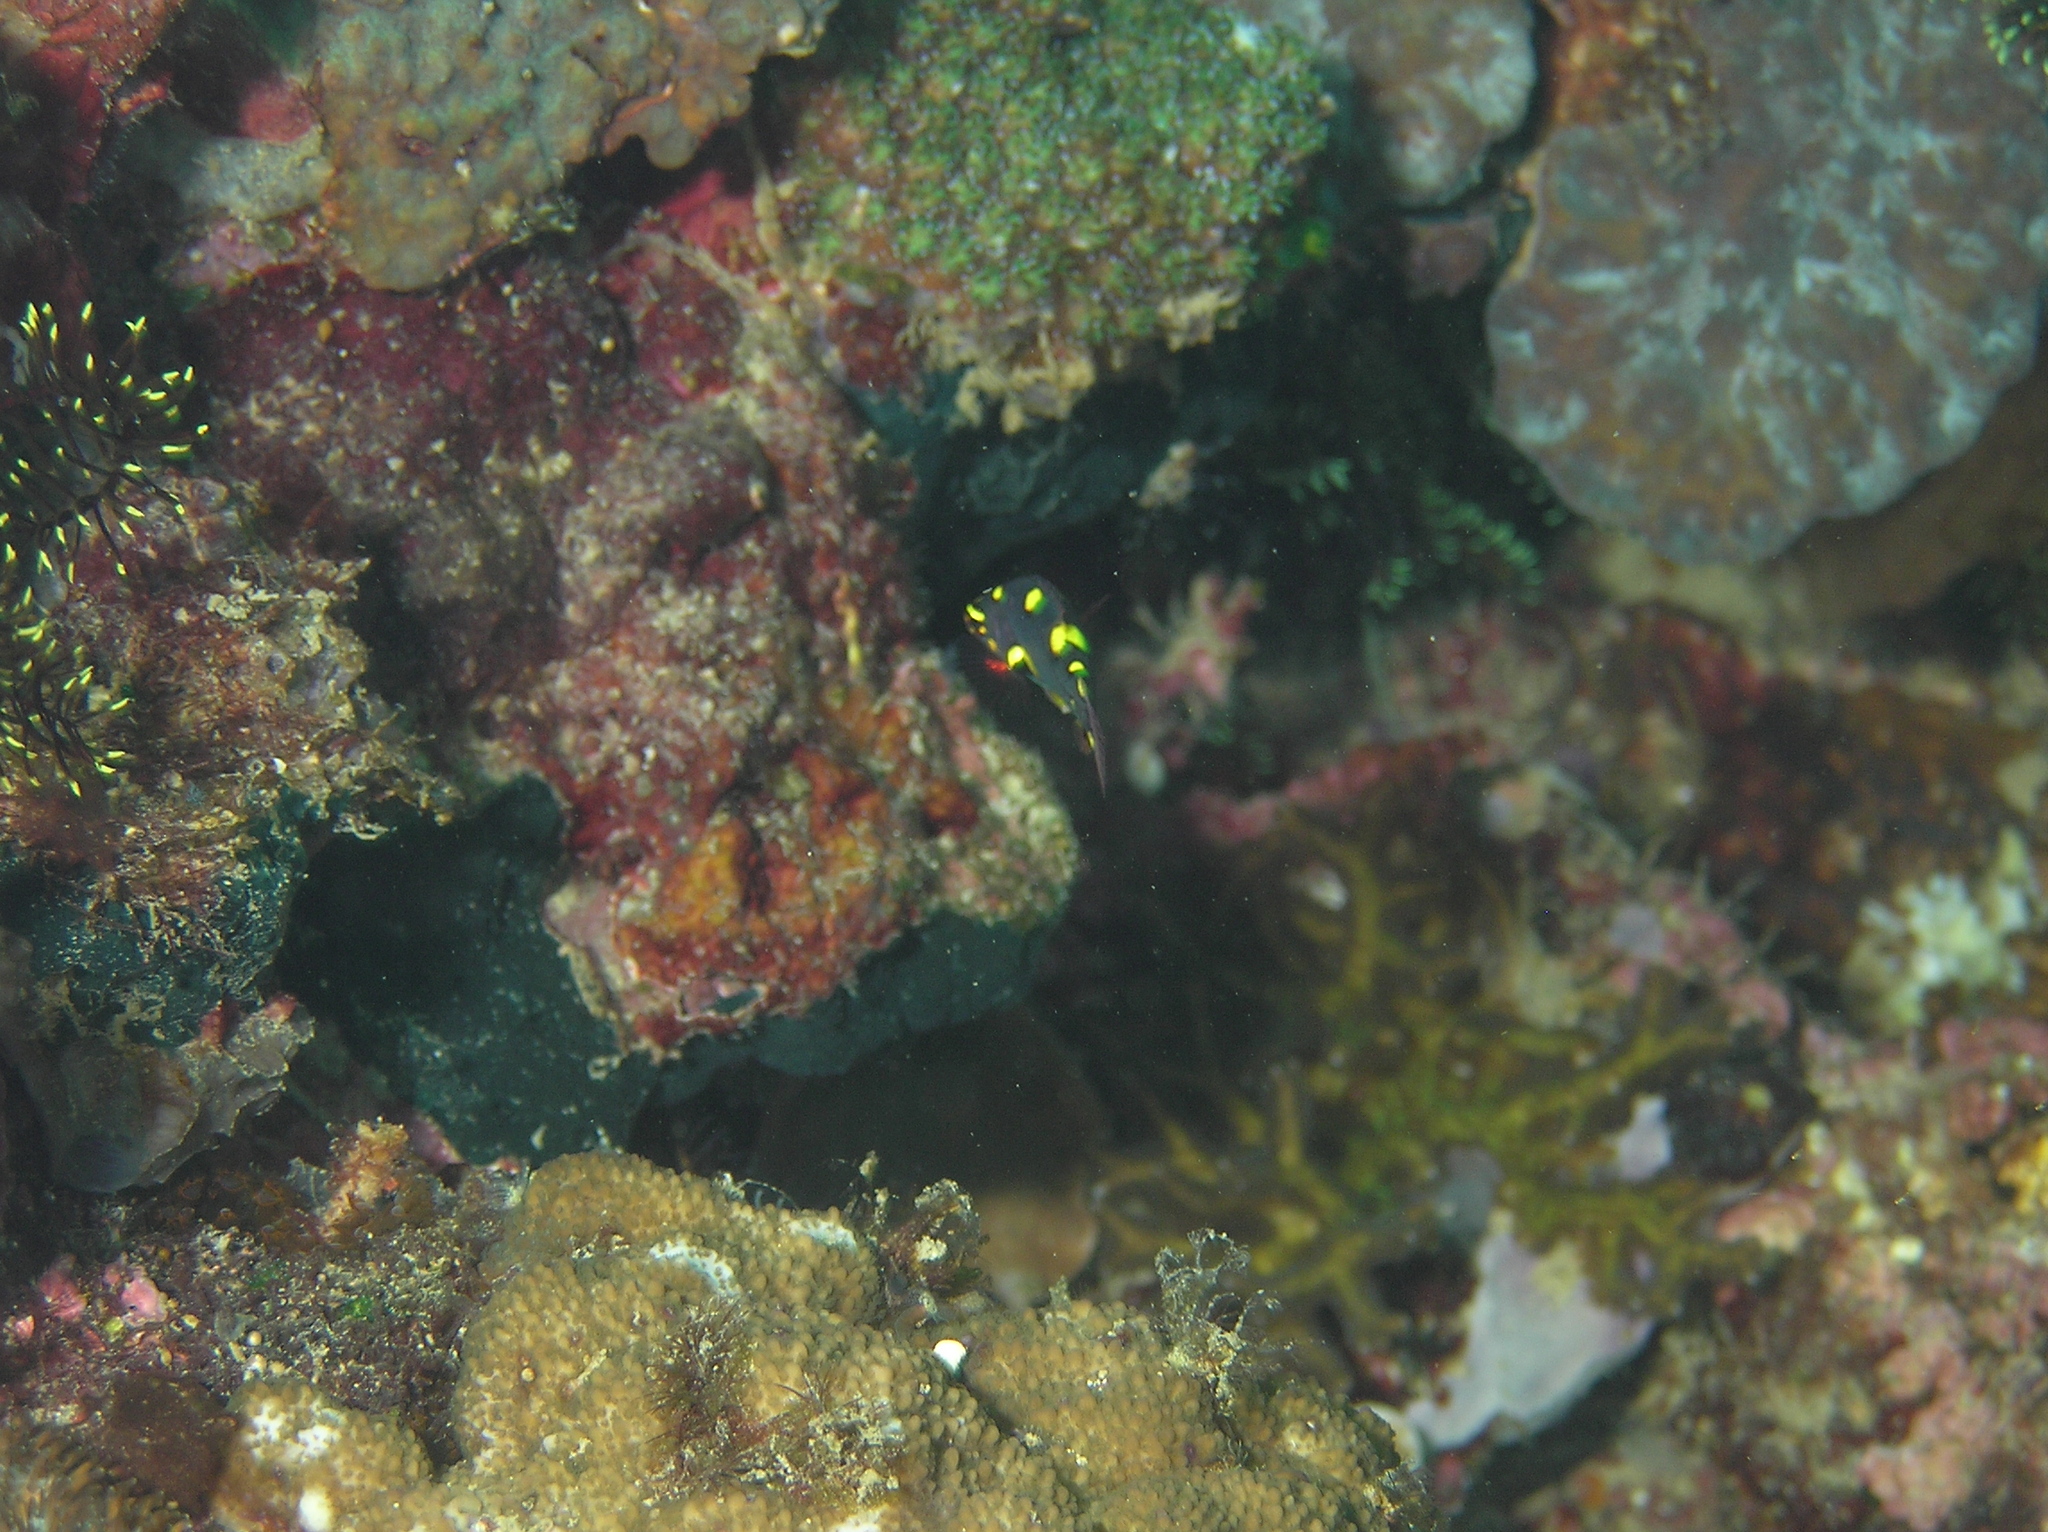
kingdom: Animalia
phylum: Chordata
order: Perciformes
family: Labridae
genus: Bodianus
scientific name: Bodianus mesothorax
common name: Coral hogfish
